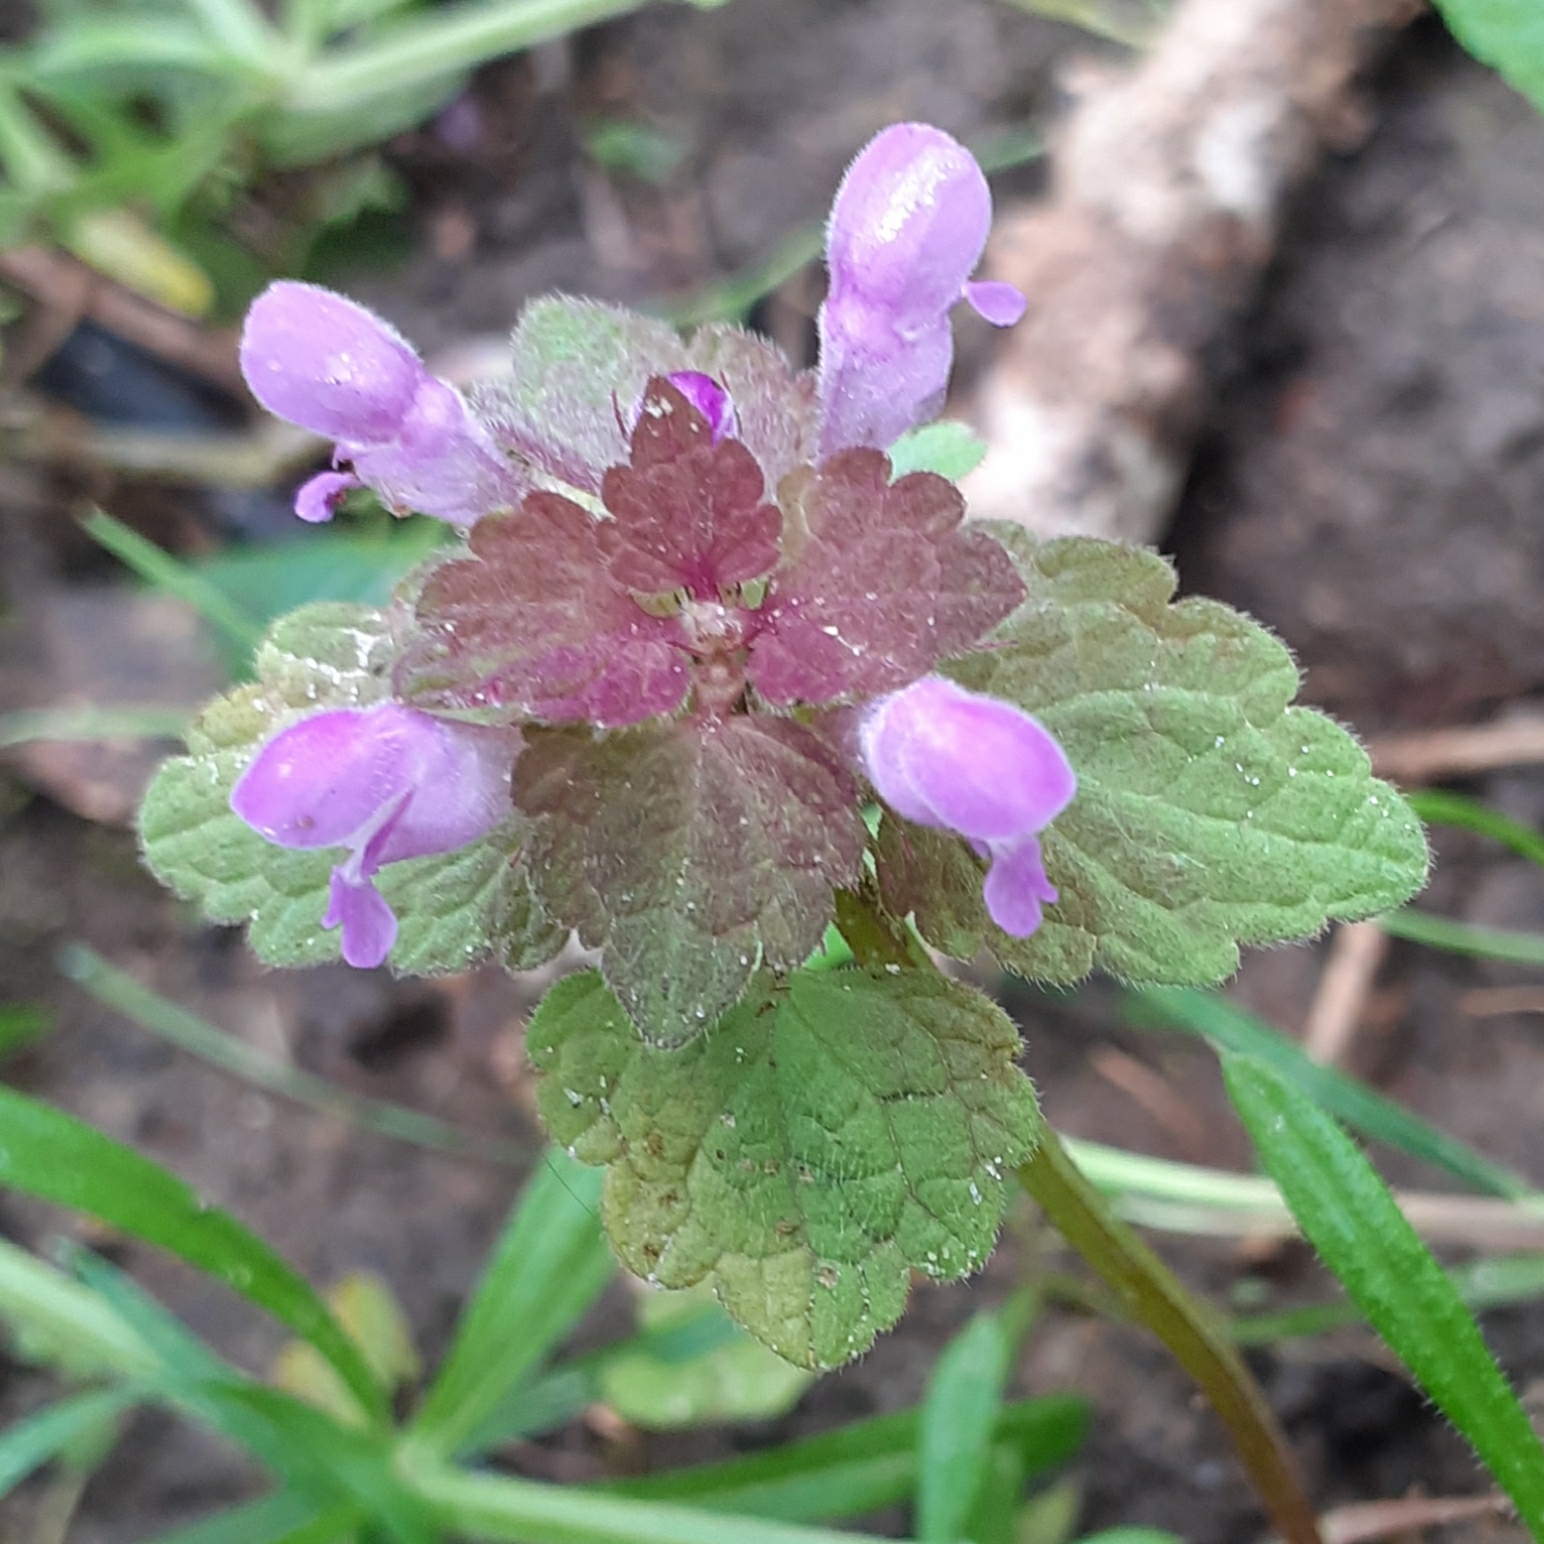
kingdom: Plantae
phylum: Tracheophyta
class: Magnoliopsida
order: Lamiales
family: Lamiaceae
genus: Lamium
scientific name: Lamium purpureum
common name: Red dead-nettle
